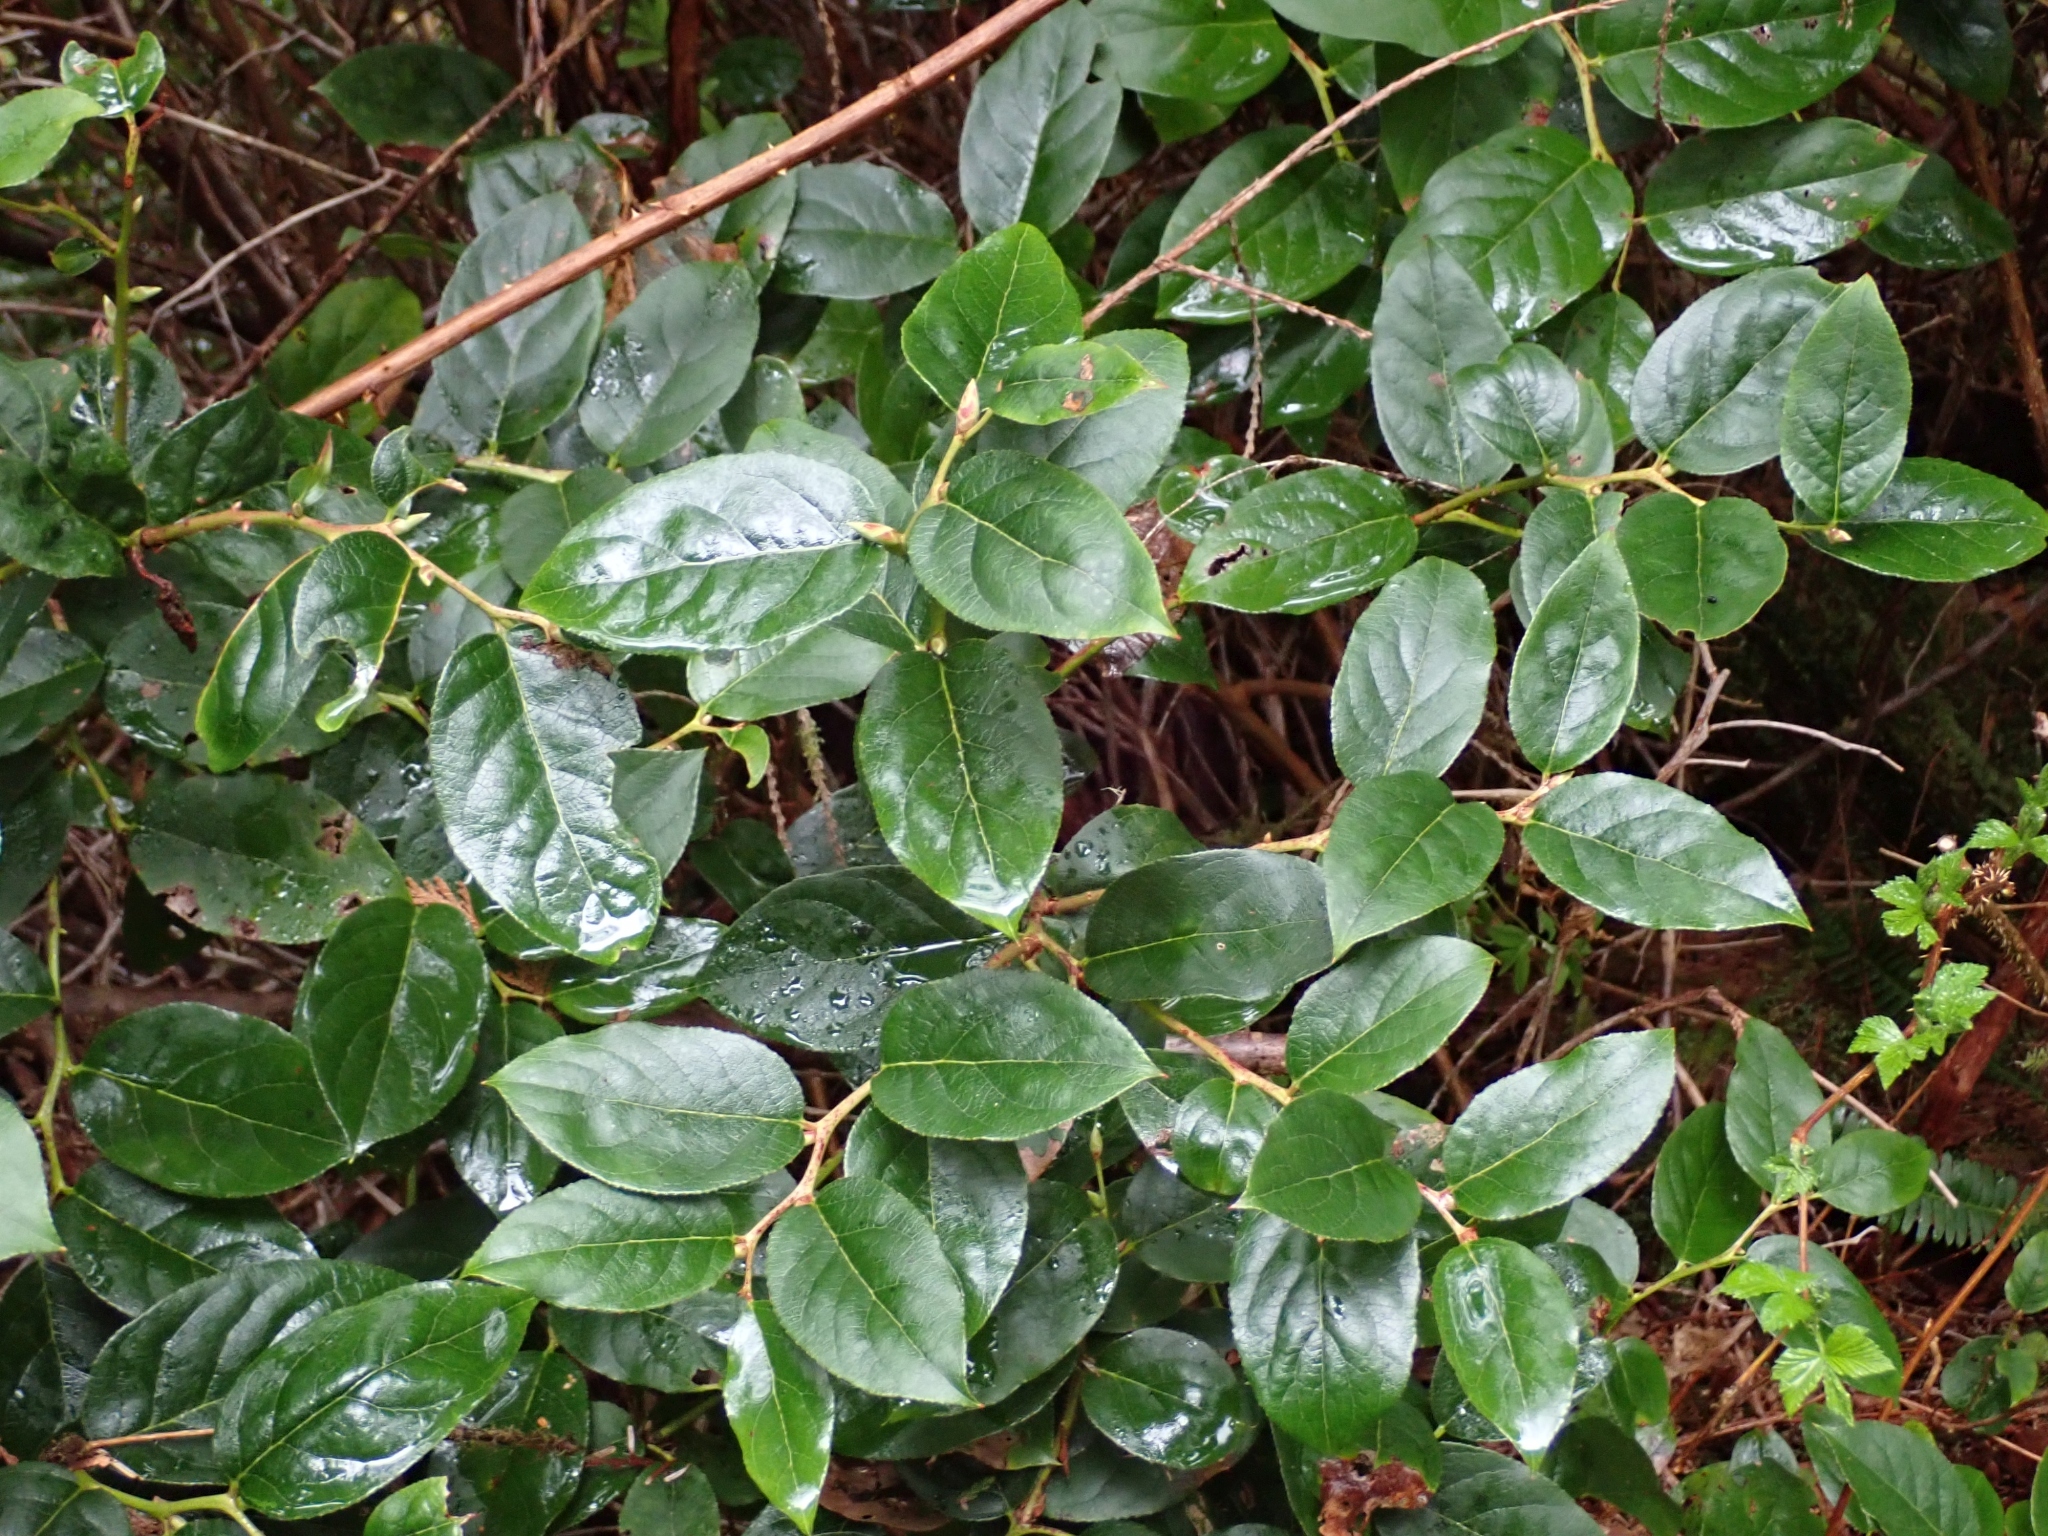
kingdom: Plantae
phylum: Tracheophyta
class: Magnoliopsida
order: Ericales
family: Ericaceae
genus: Gaultheria
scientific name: Gaultheria shallon
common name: Shallon
